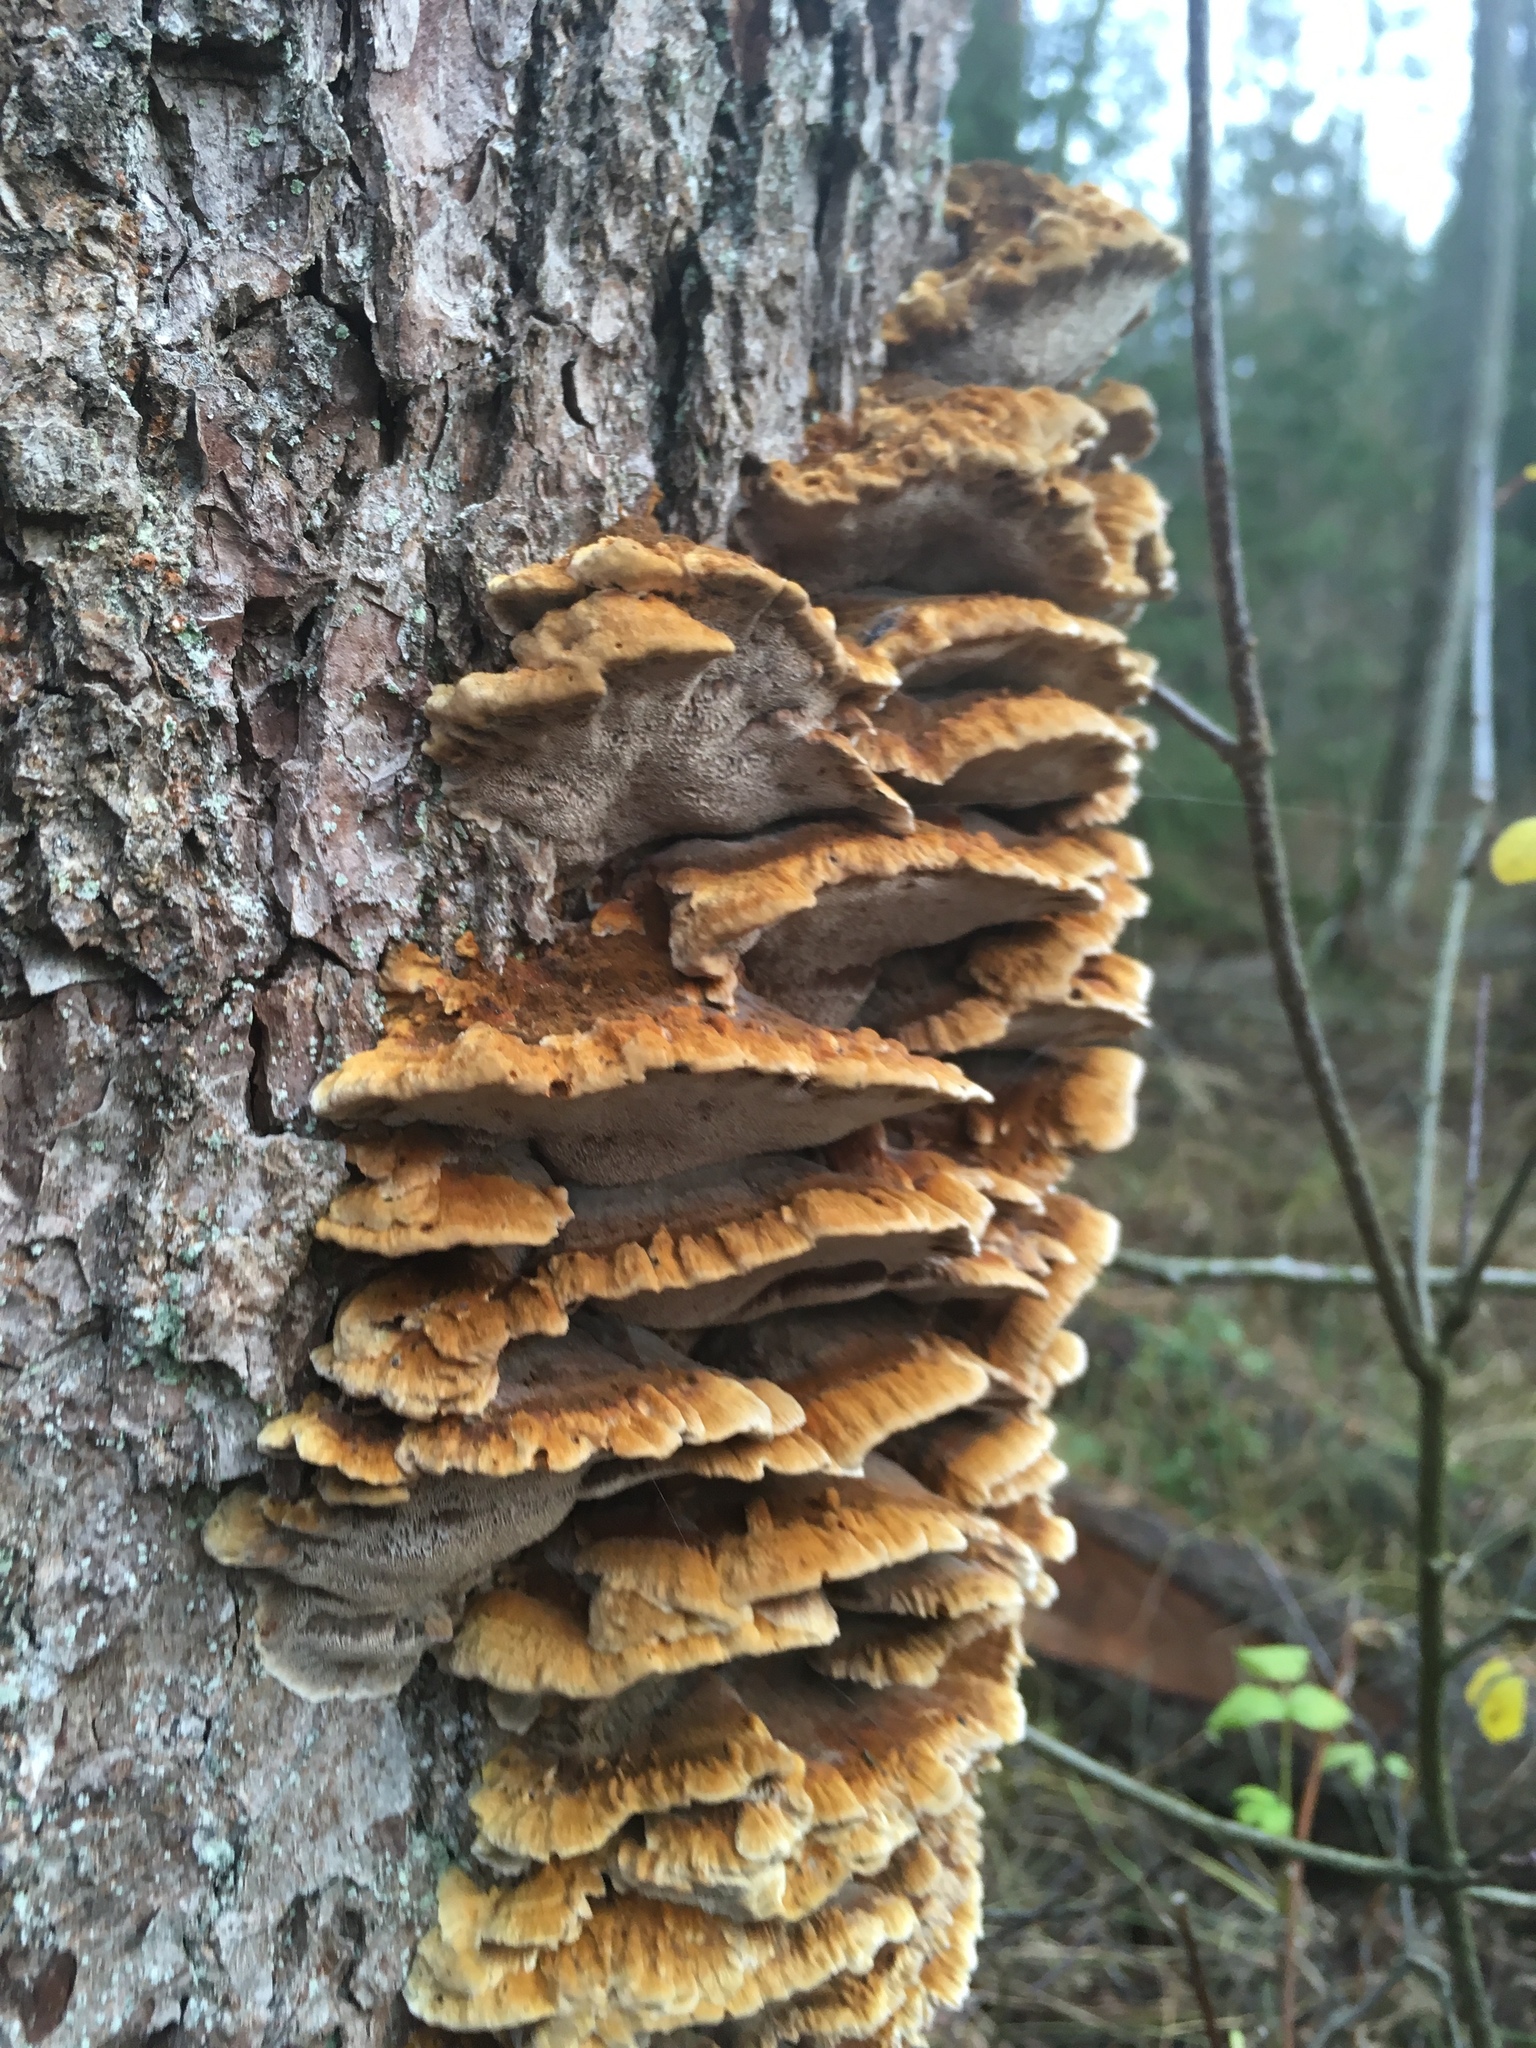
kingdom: Fungi
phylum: Basidiomycota
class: Agaricomycetes
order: Hymenochaetales
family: Hymenochaetaceae
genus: Xanthoporia
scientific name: Xanthoporia radiata
